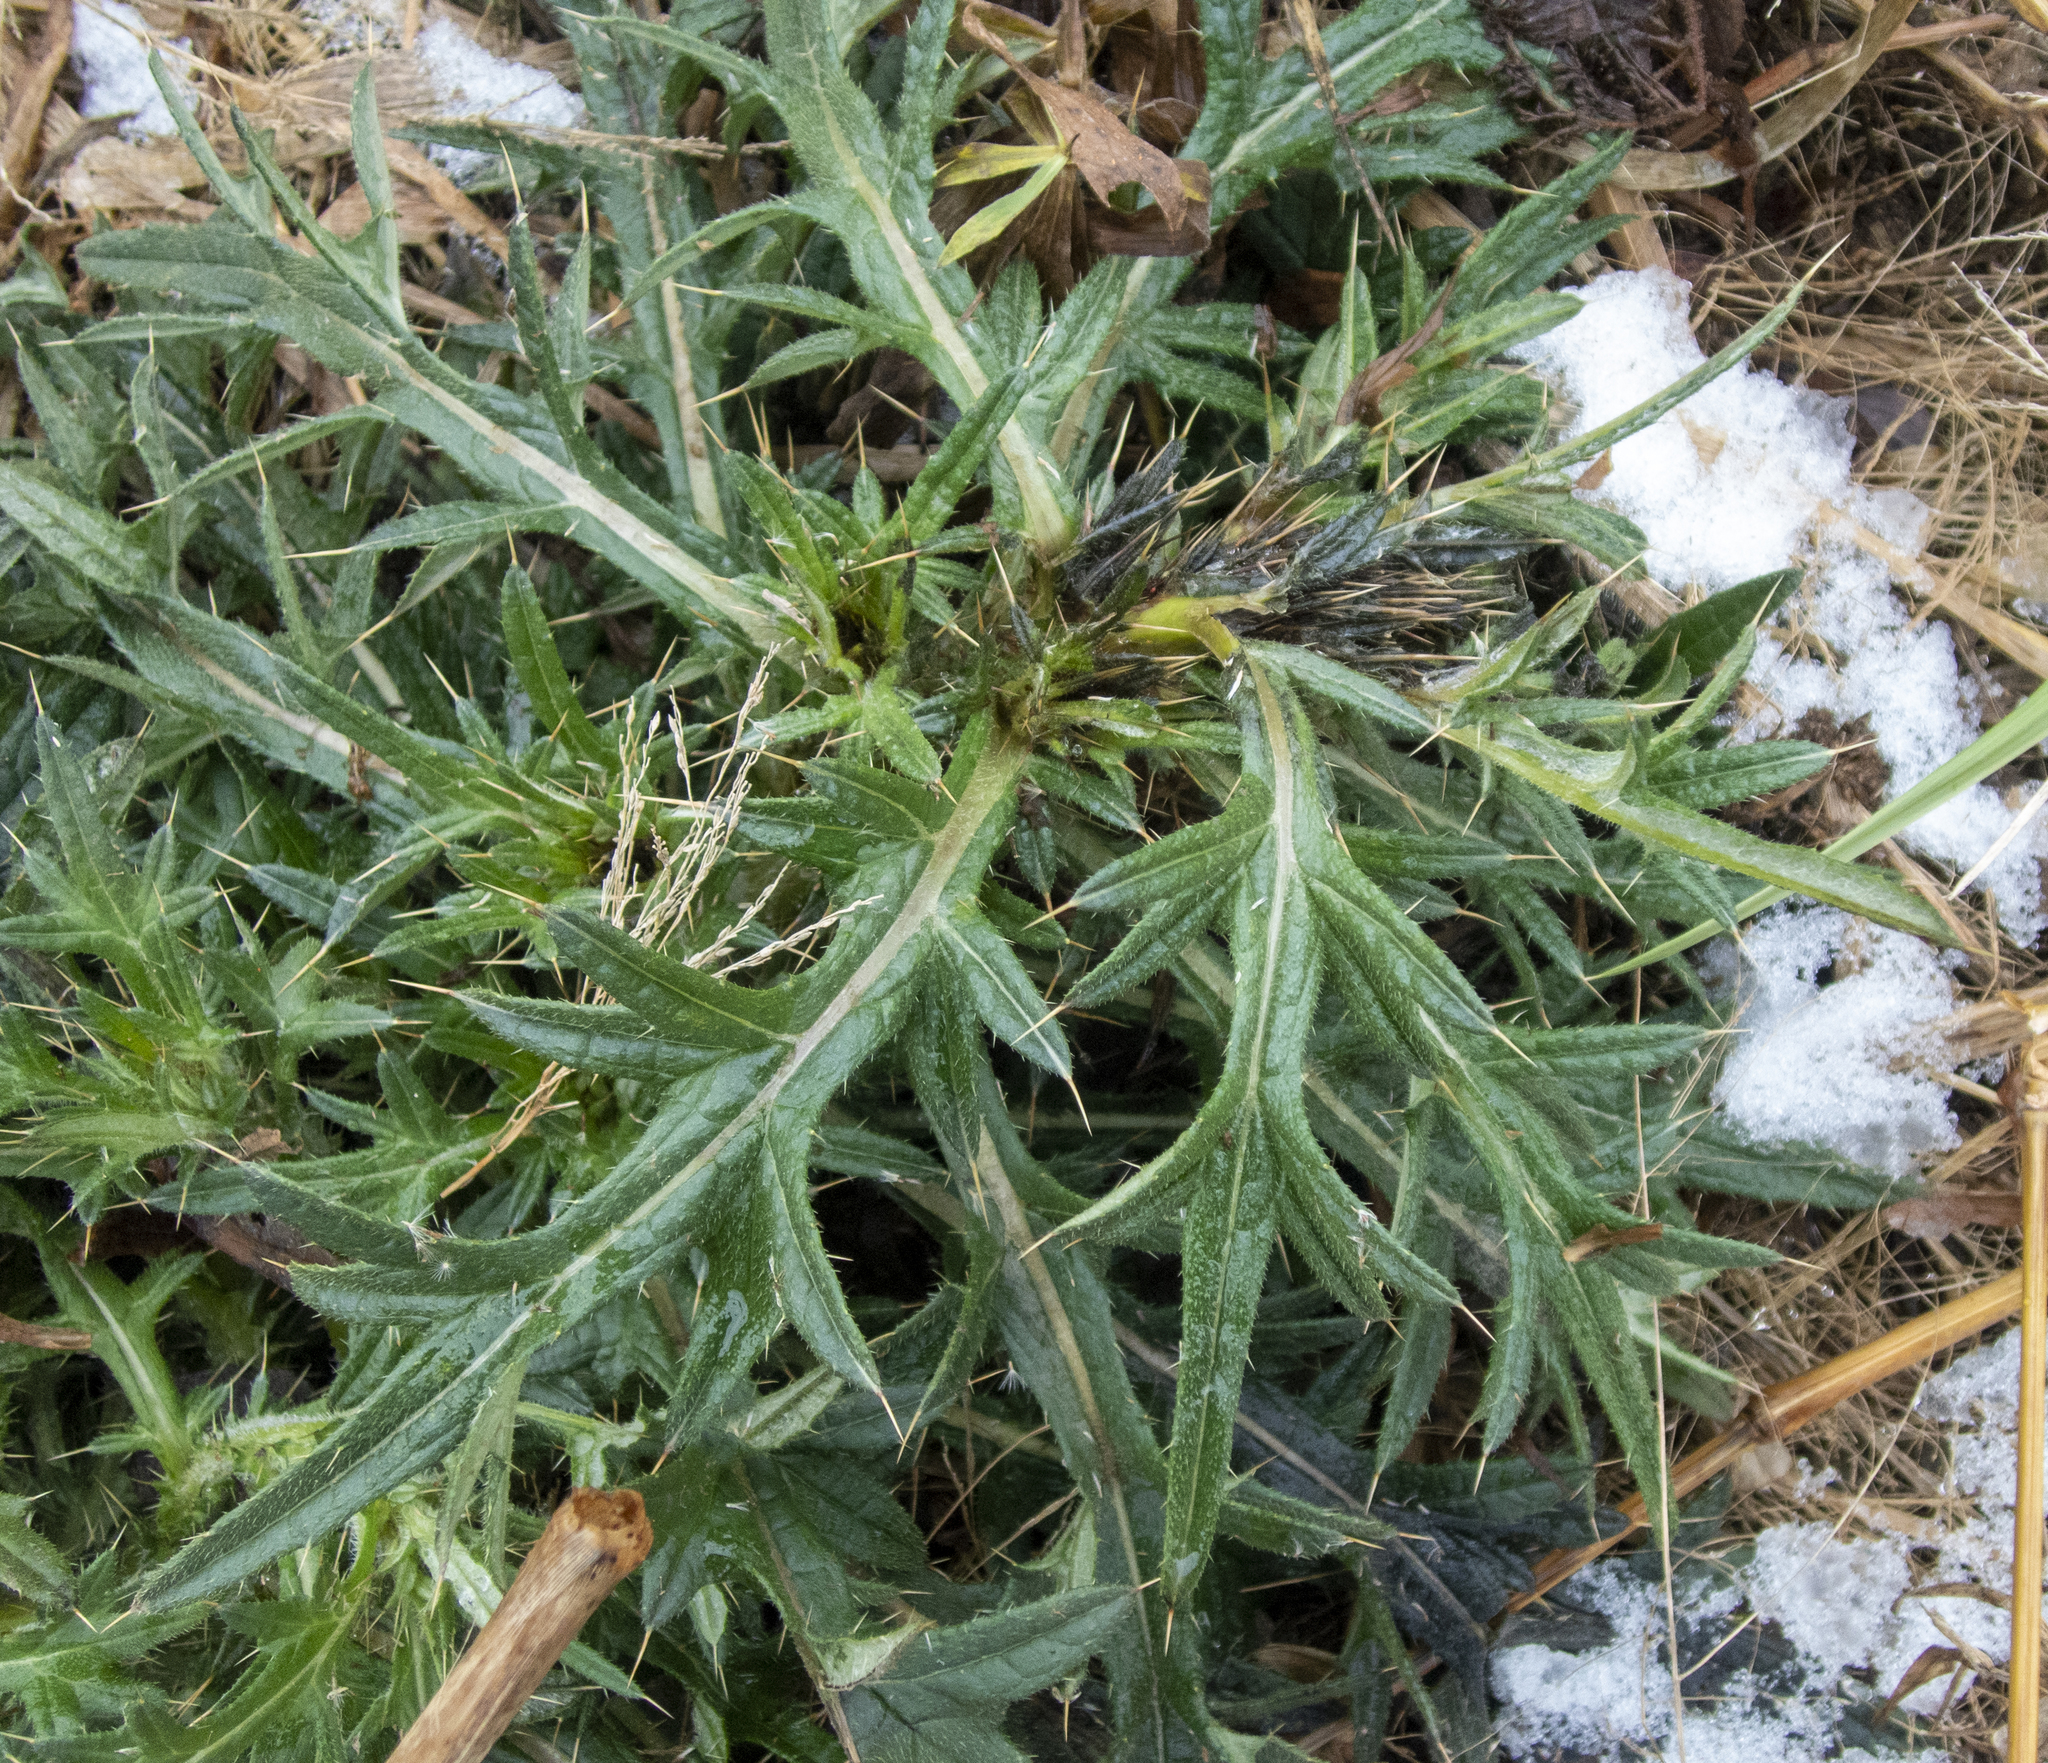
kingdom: Plantae
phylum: Tracheophyta
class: Magnoliopsida
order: Asterales
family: Asteraceae
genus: Cirsium
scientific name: Cirsium vulgare
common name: Bull thistle
